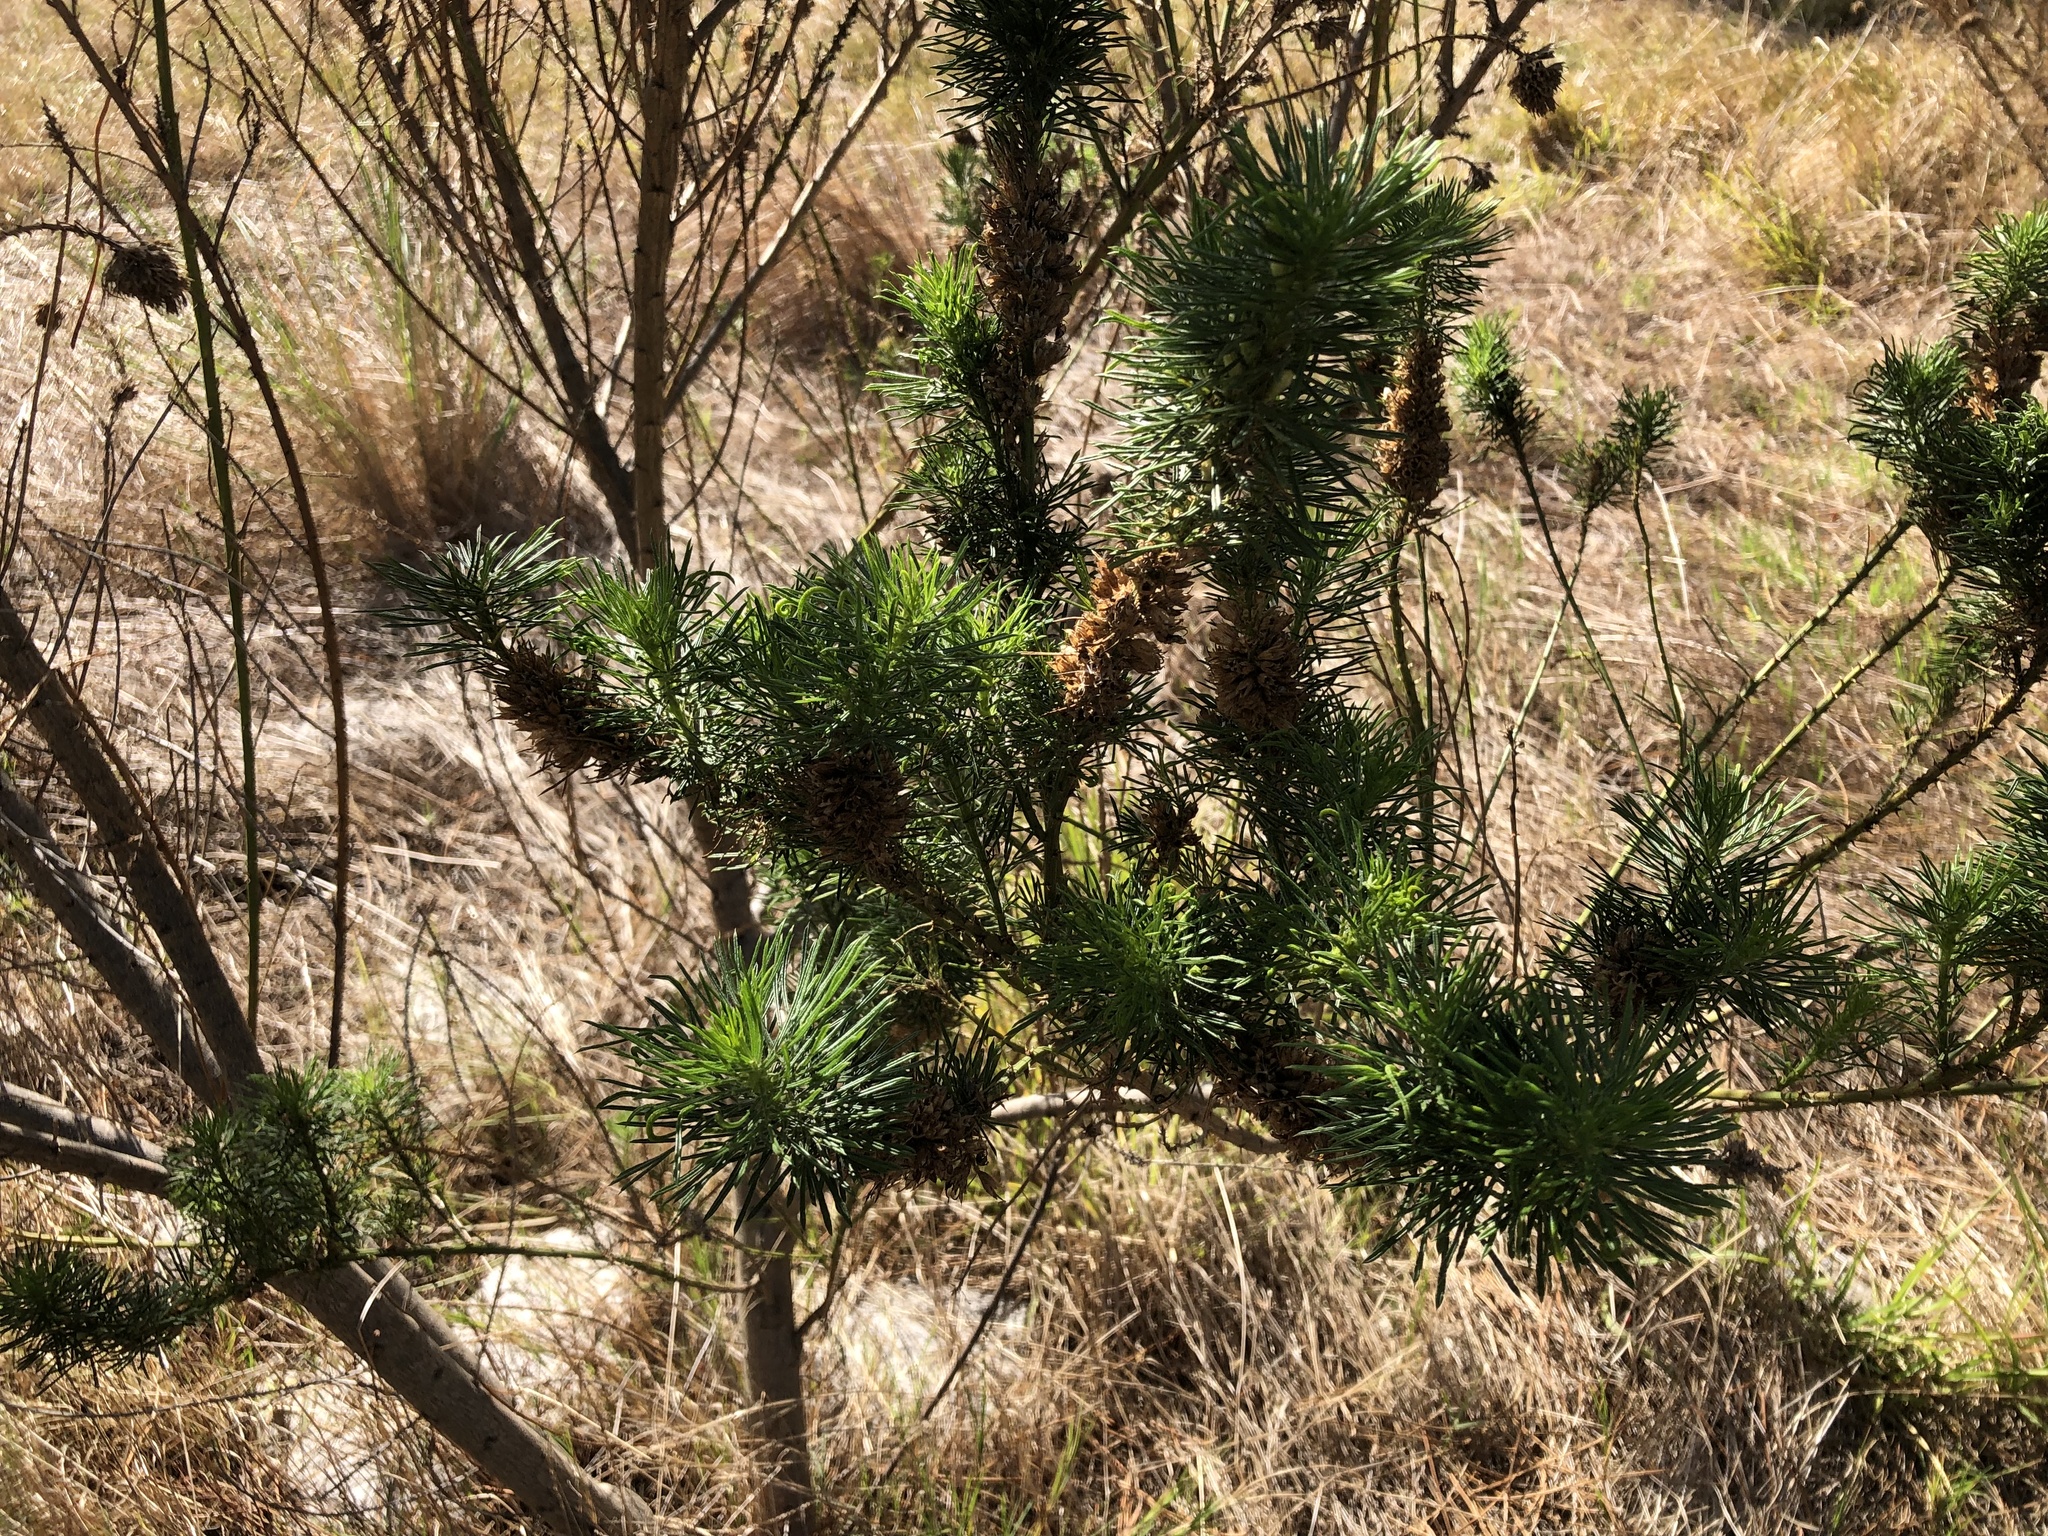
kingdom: Plantae
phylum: Tracheophyta
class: Magnoliopsida
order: Fabales
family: Fabaceae
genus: Psoralea
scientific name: Psoralea pinnata
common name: African scurfpea
